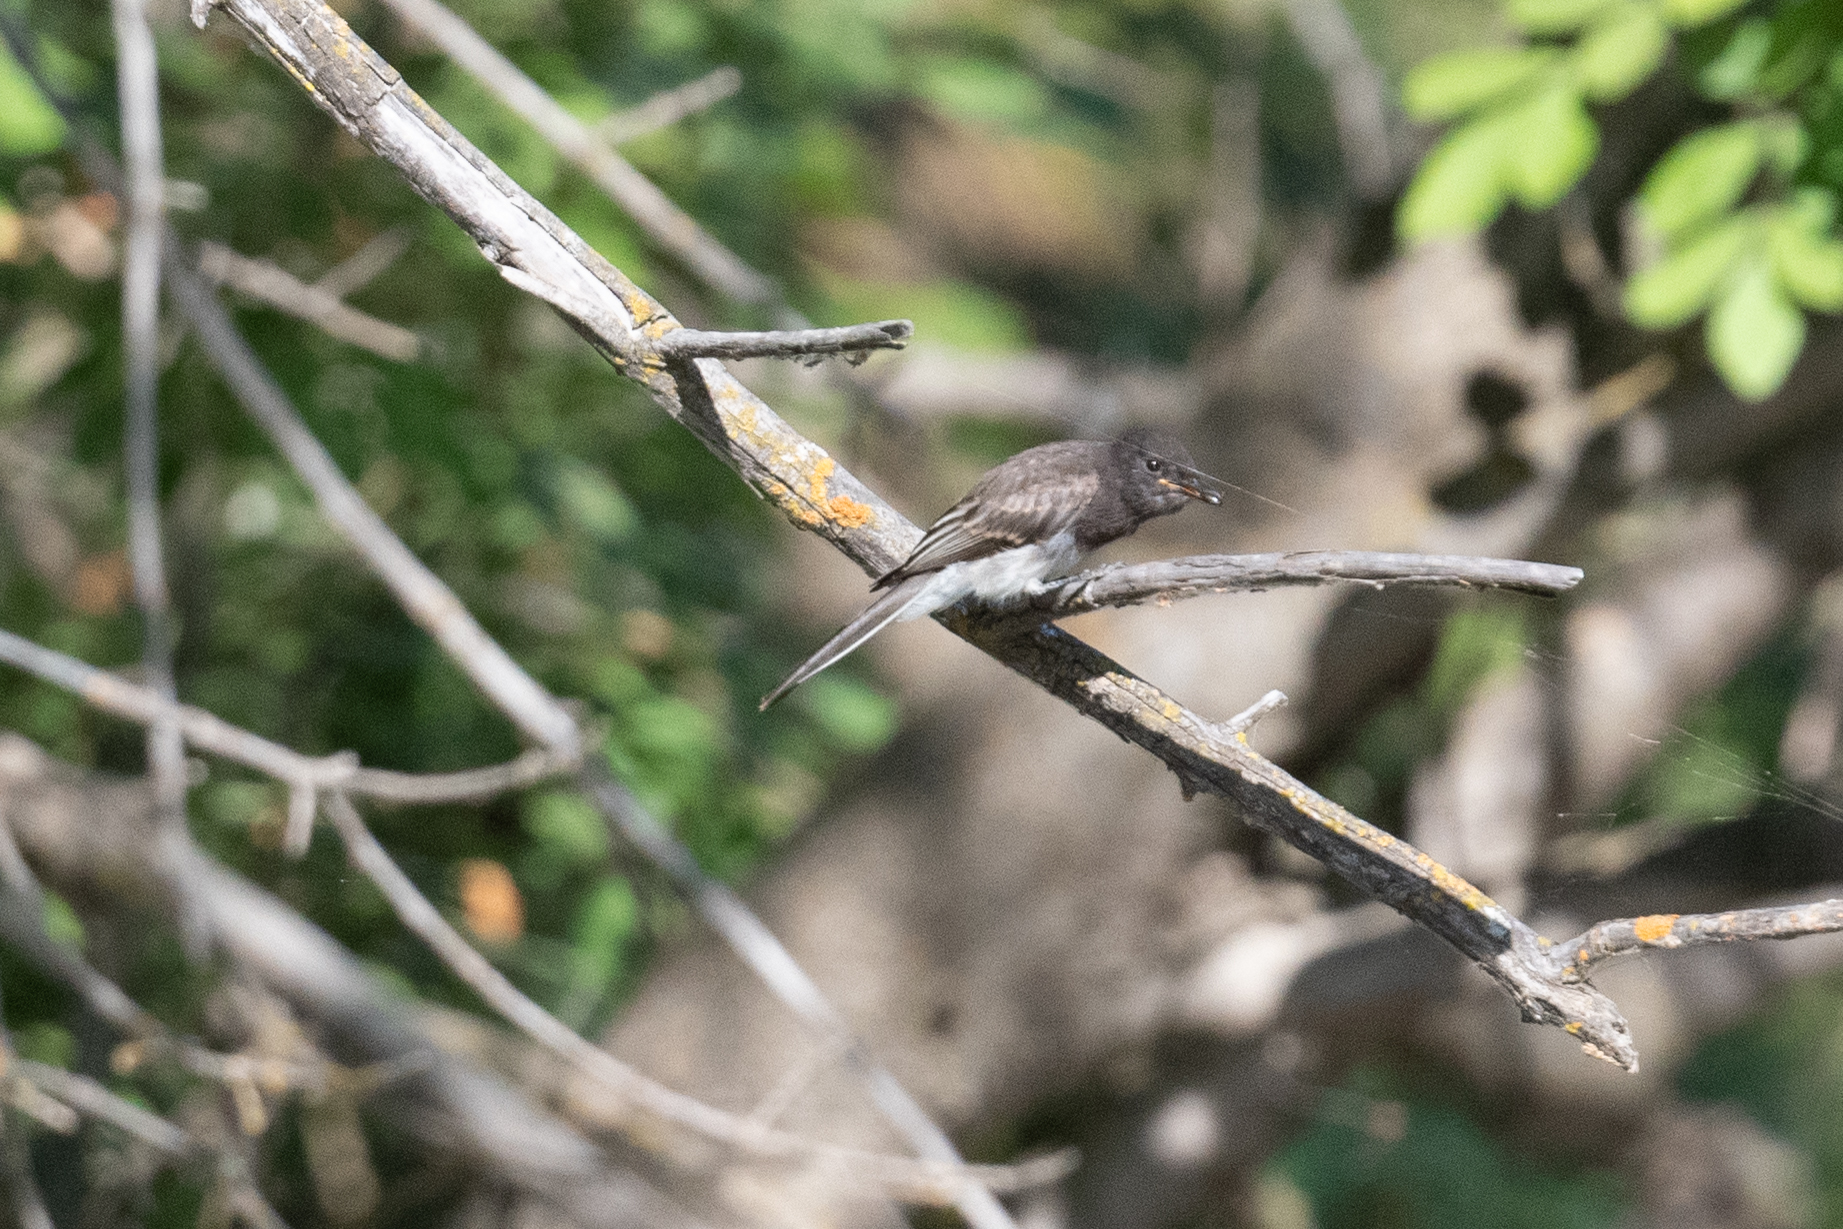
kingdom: Animalia
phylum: Chordata
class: Aves
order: Passeriformes
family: Tyrannidae
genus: Sayornis
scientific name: Sayornis nigricans
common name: Black phoebe
